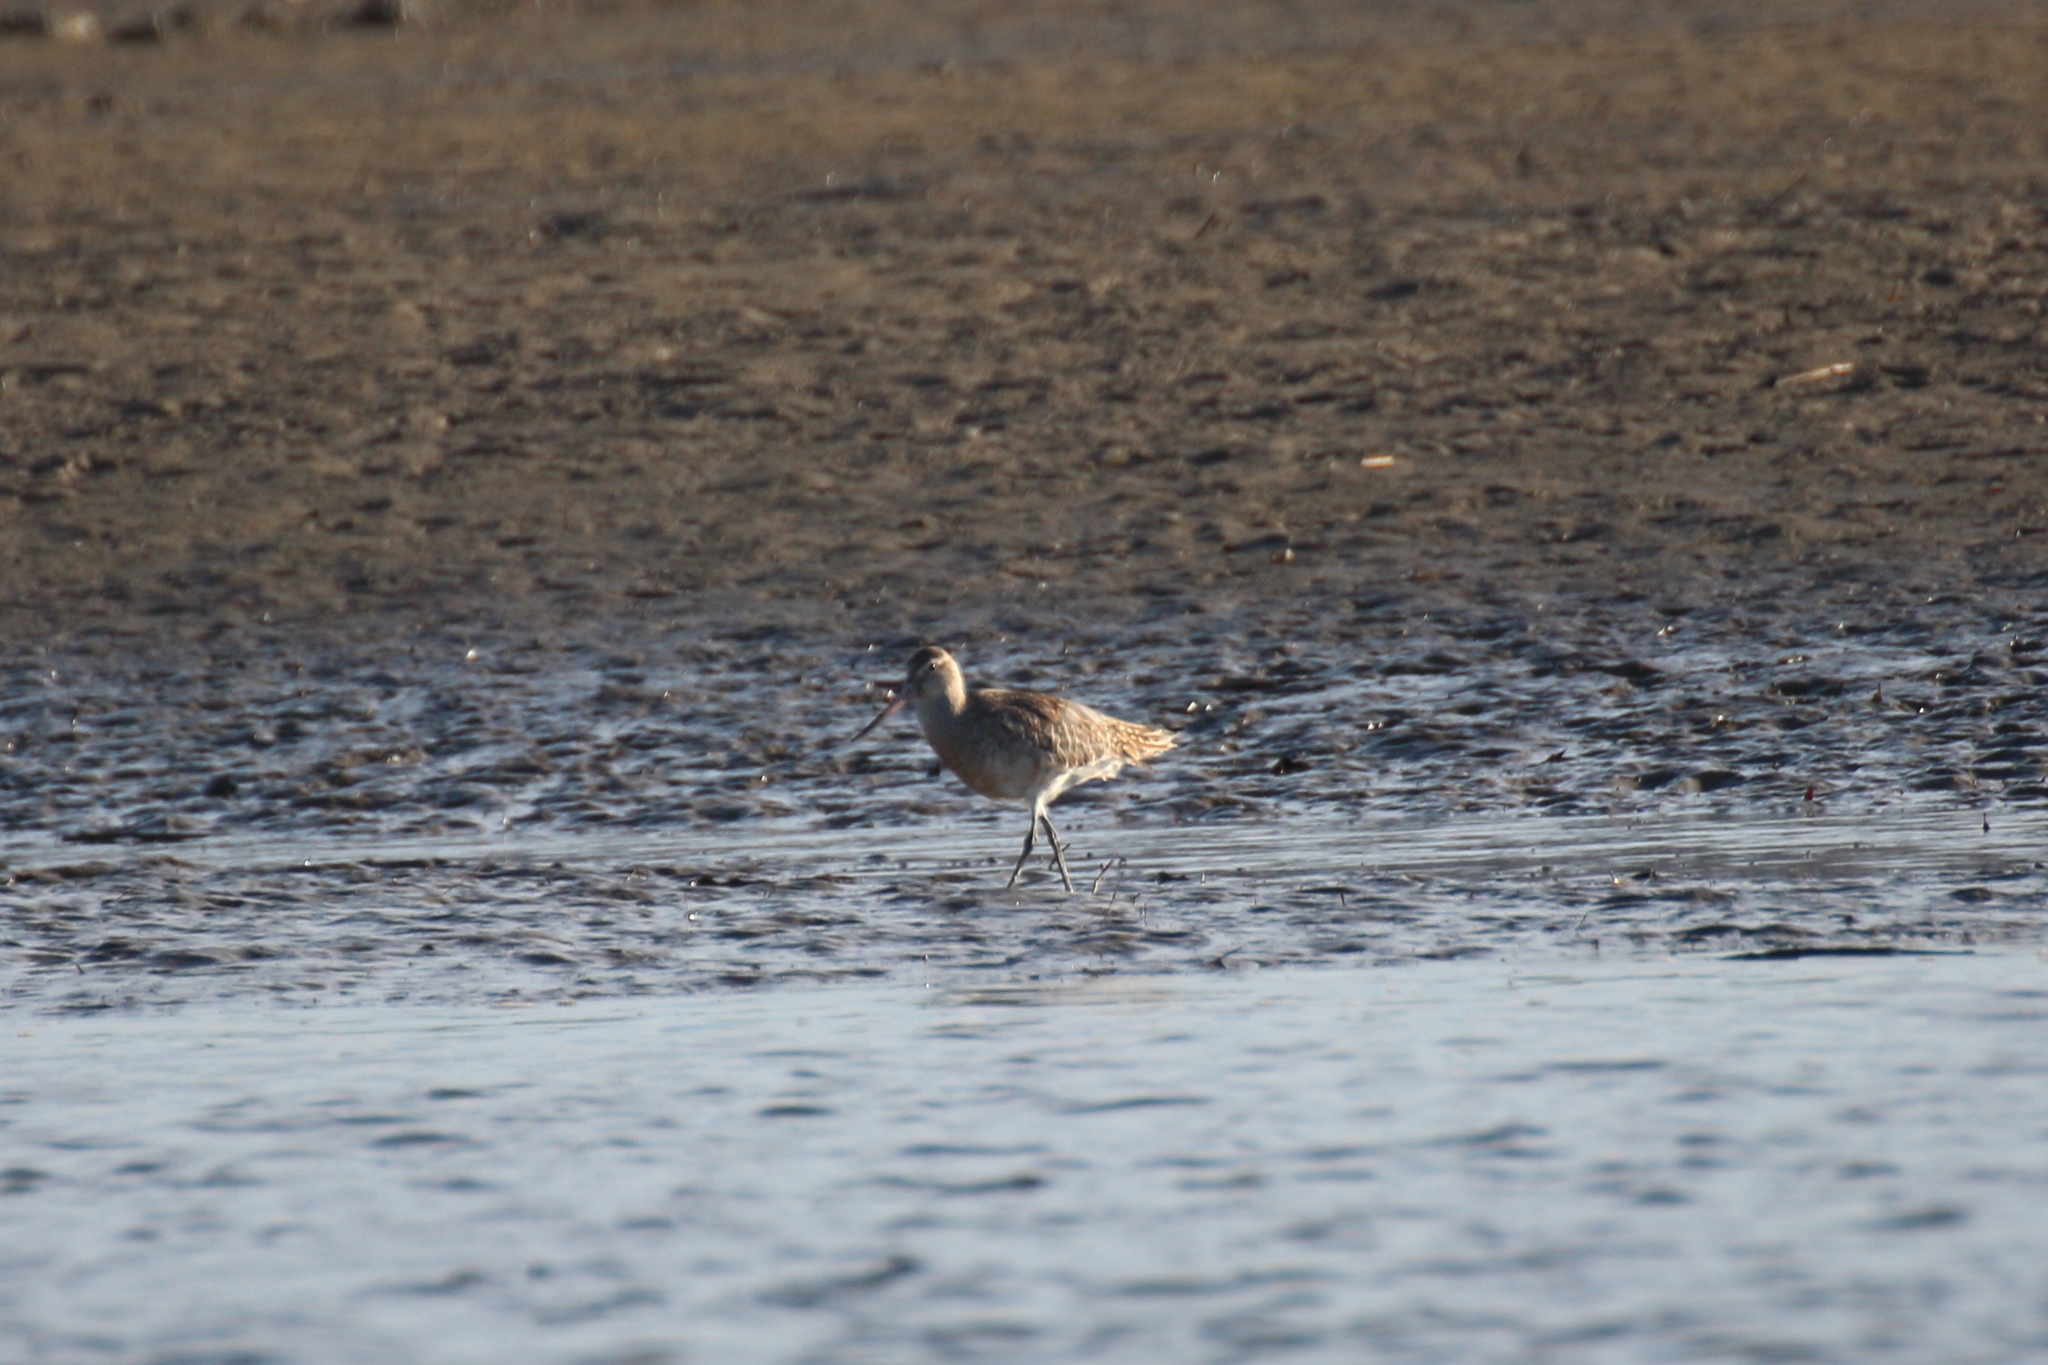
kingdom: Animalia
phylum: Chordata
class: Aves
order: Charadriiformes
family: Scolopacidae
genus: Limosa
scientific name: Limosa lapponica
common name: Bar-tailed godwit
